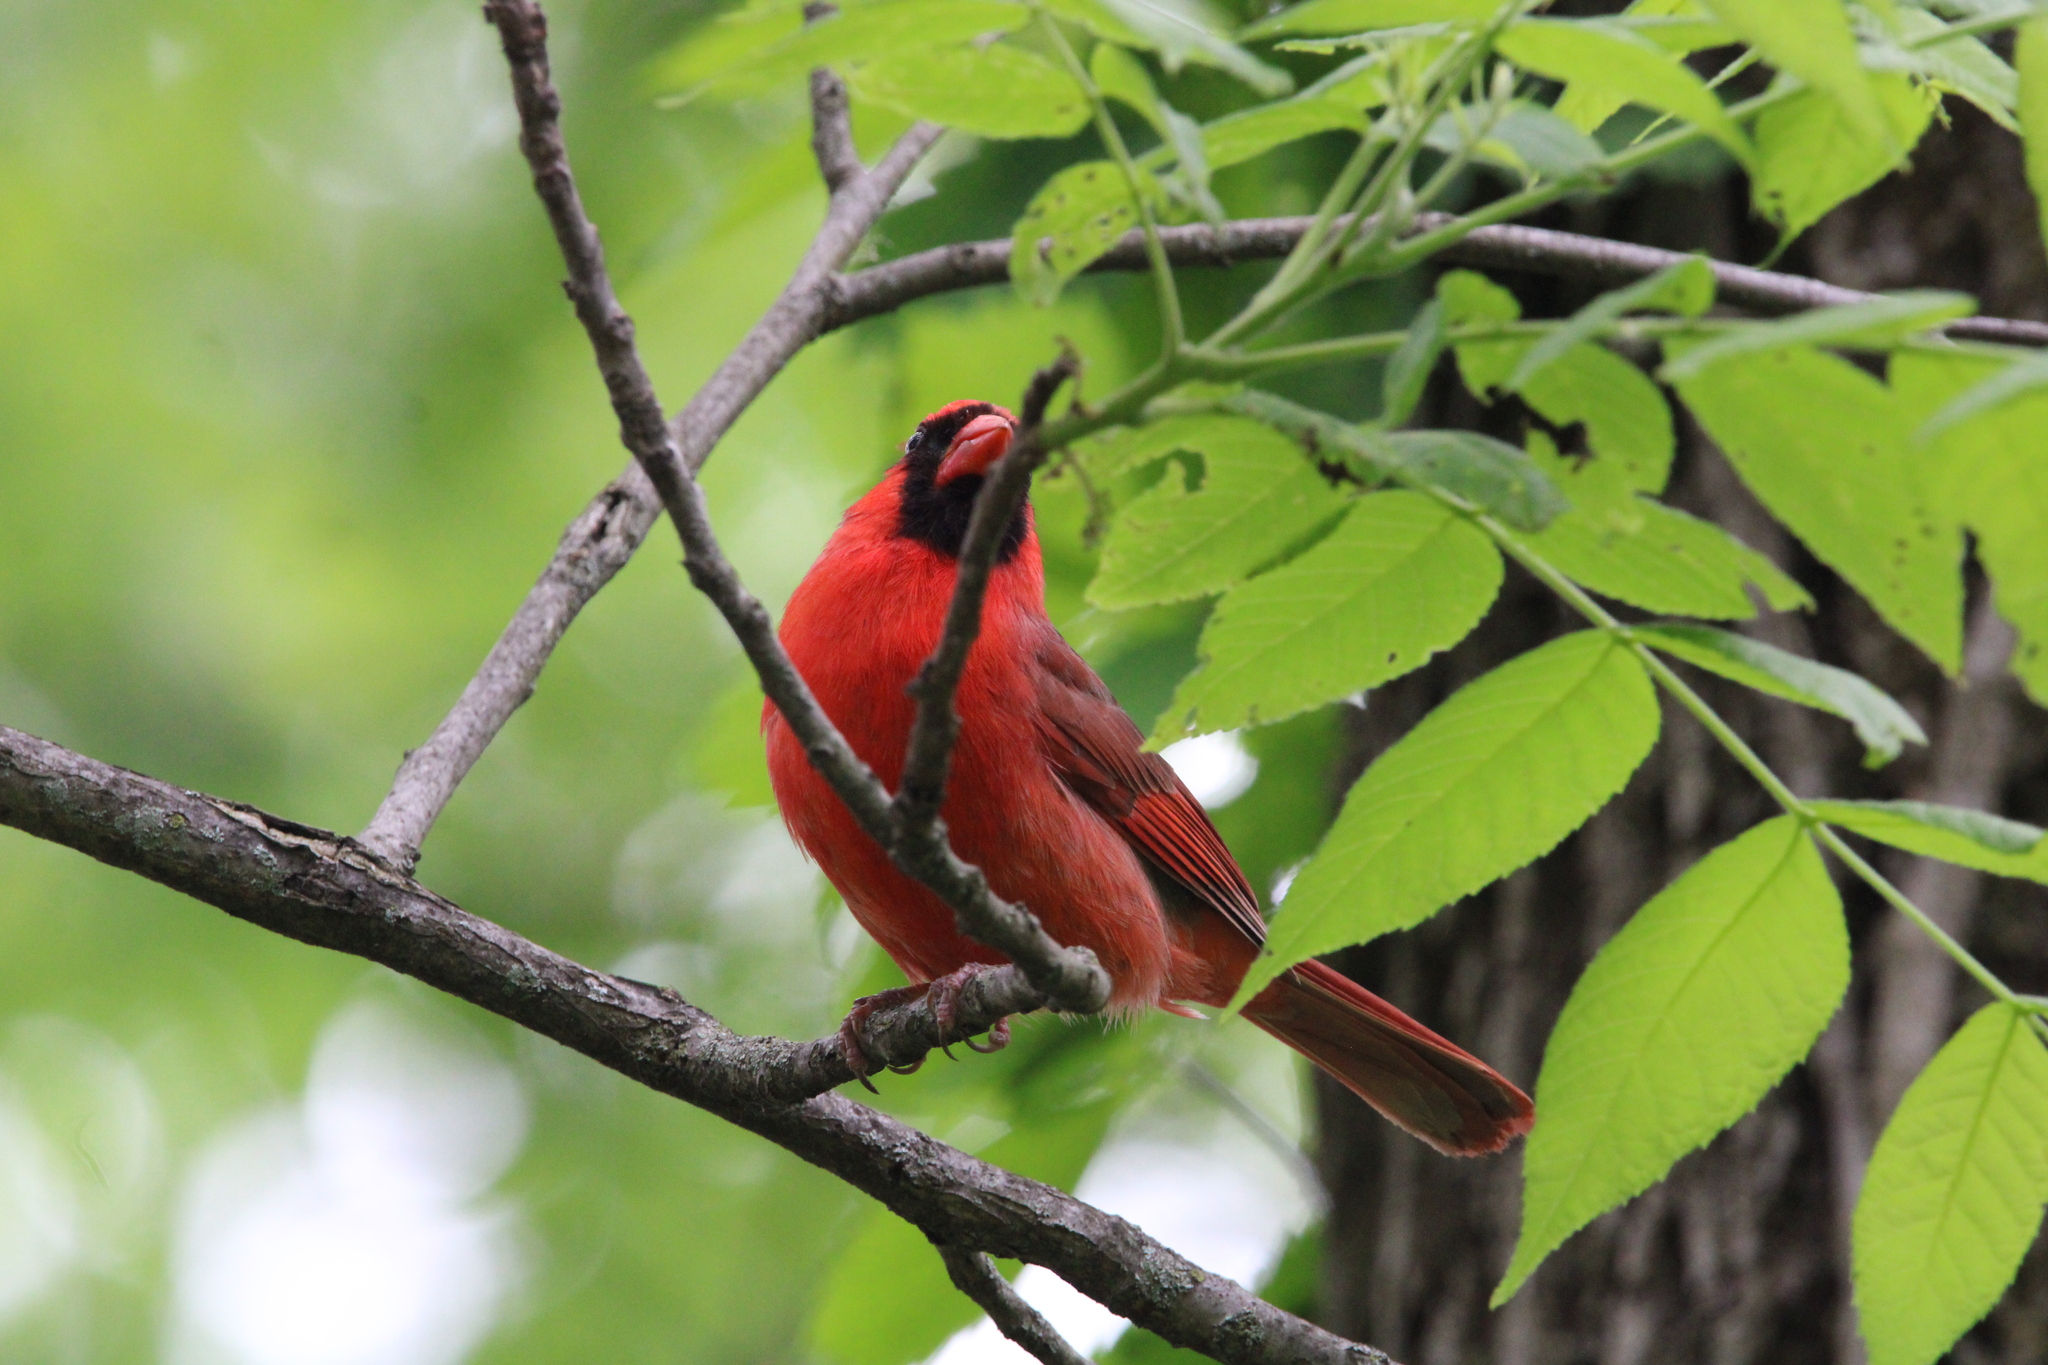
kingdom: Animalia
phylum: Chordata
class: Aves
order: Passeriformes
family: Cardinalidae
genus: Cardinalis
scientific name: Cardinalis cardinalis
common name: Northern cardinal
